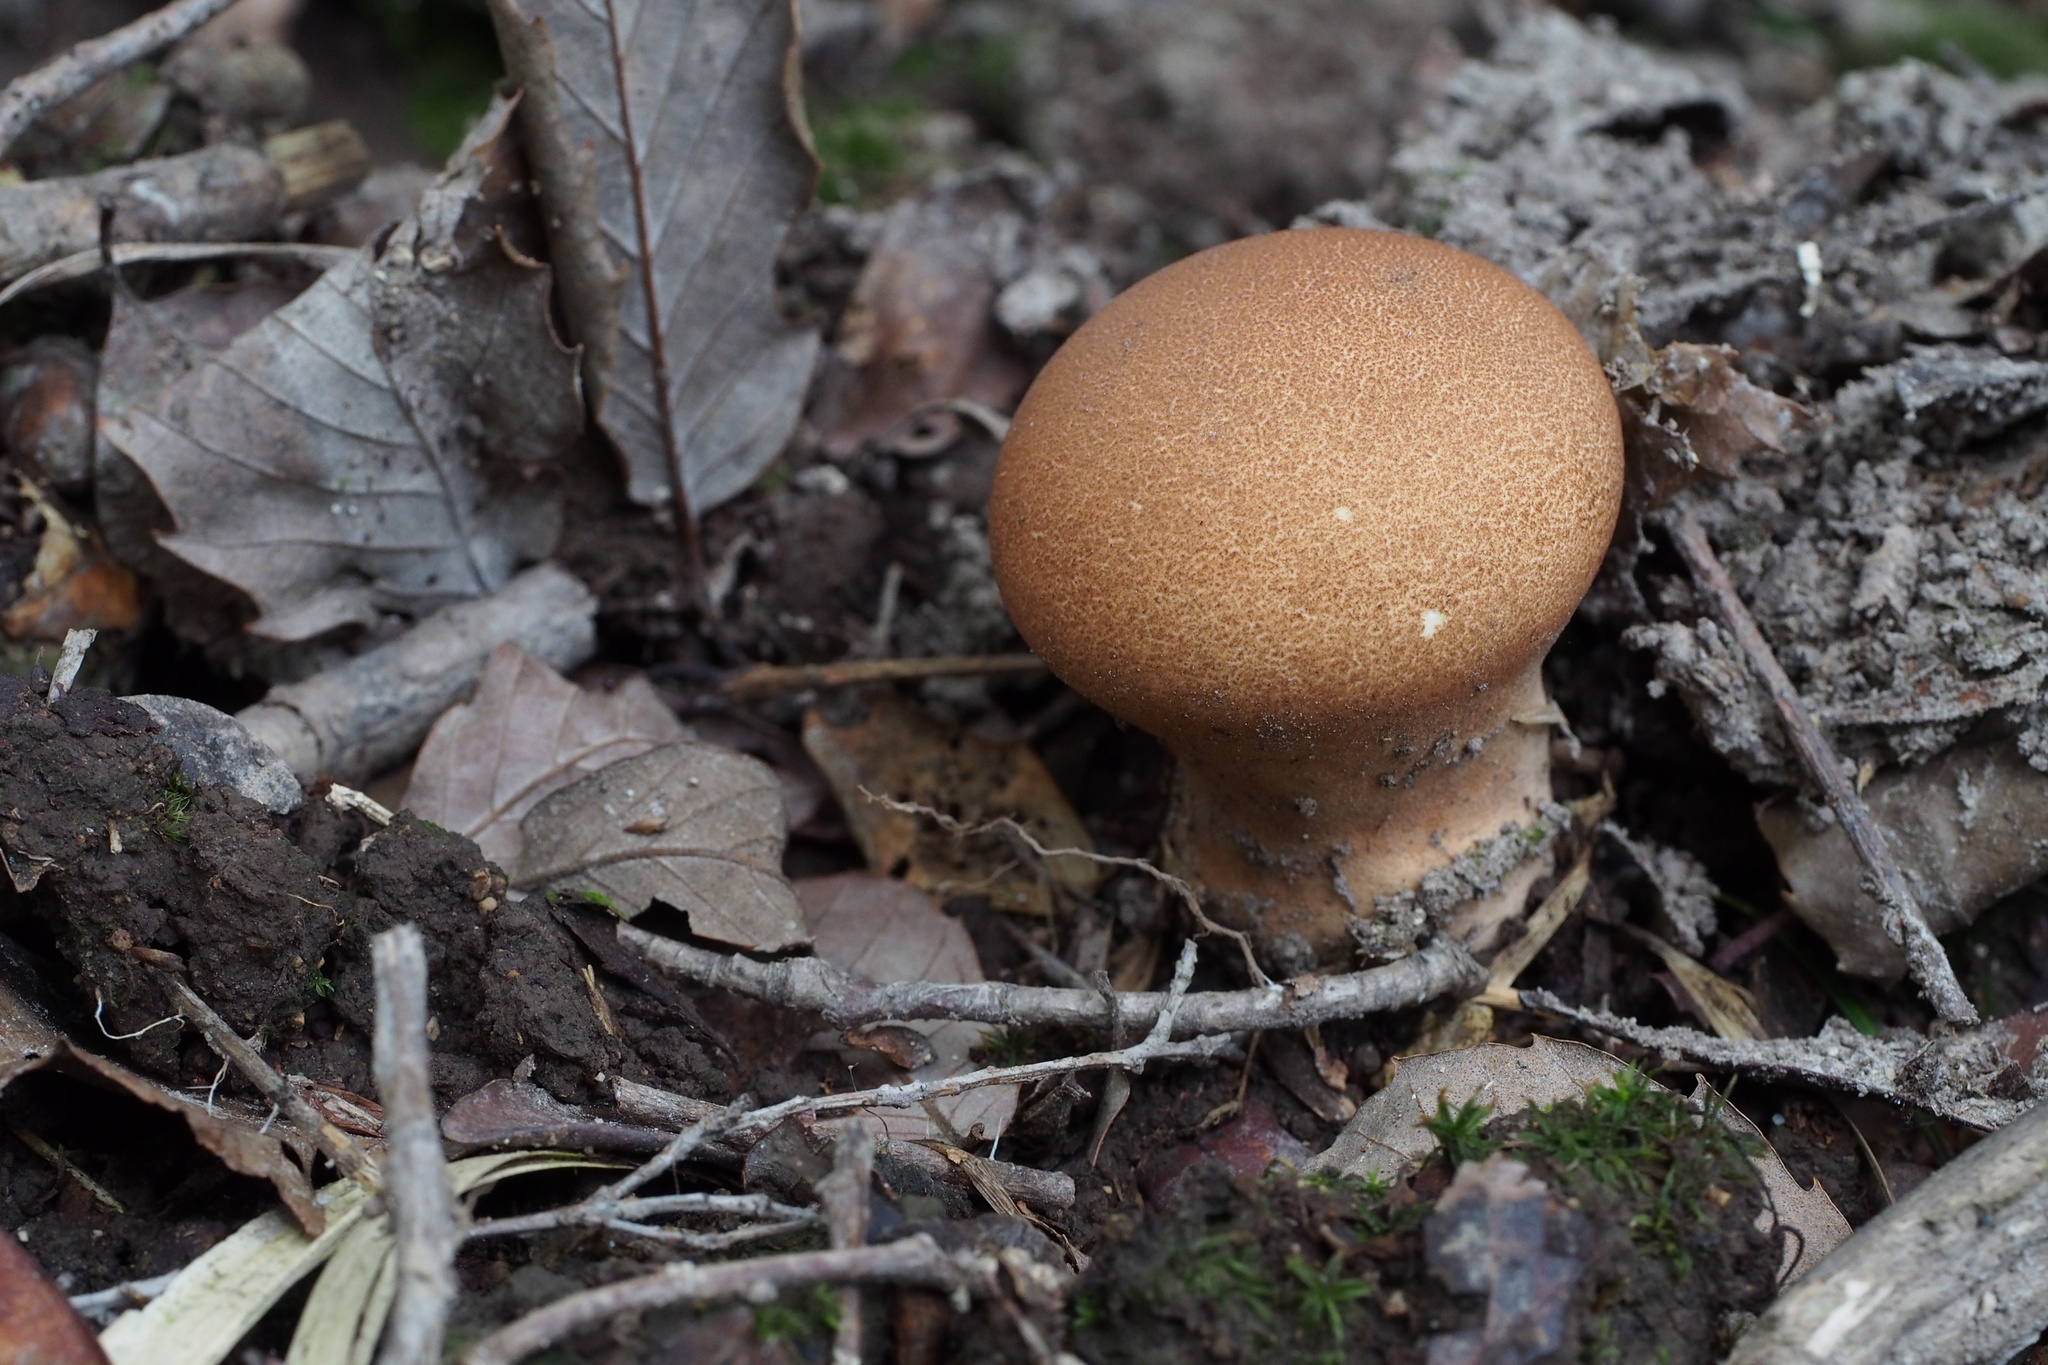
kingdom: Fungi
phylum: Basidiomycota
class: Agaricomycetes
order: Agaricales
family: Lycoperdaceae
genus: Calvatia
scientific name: Calvatia craniiformis
